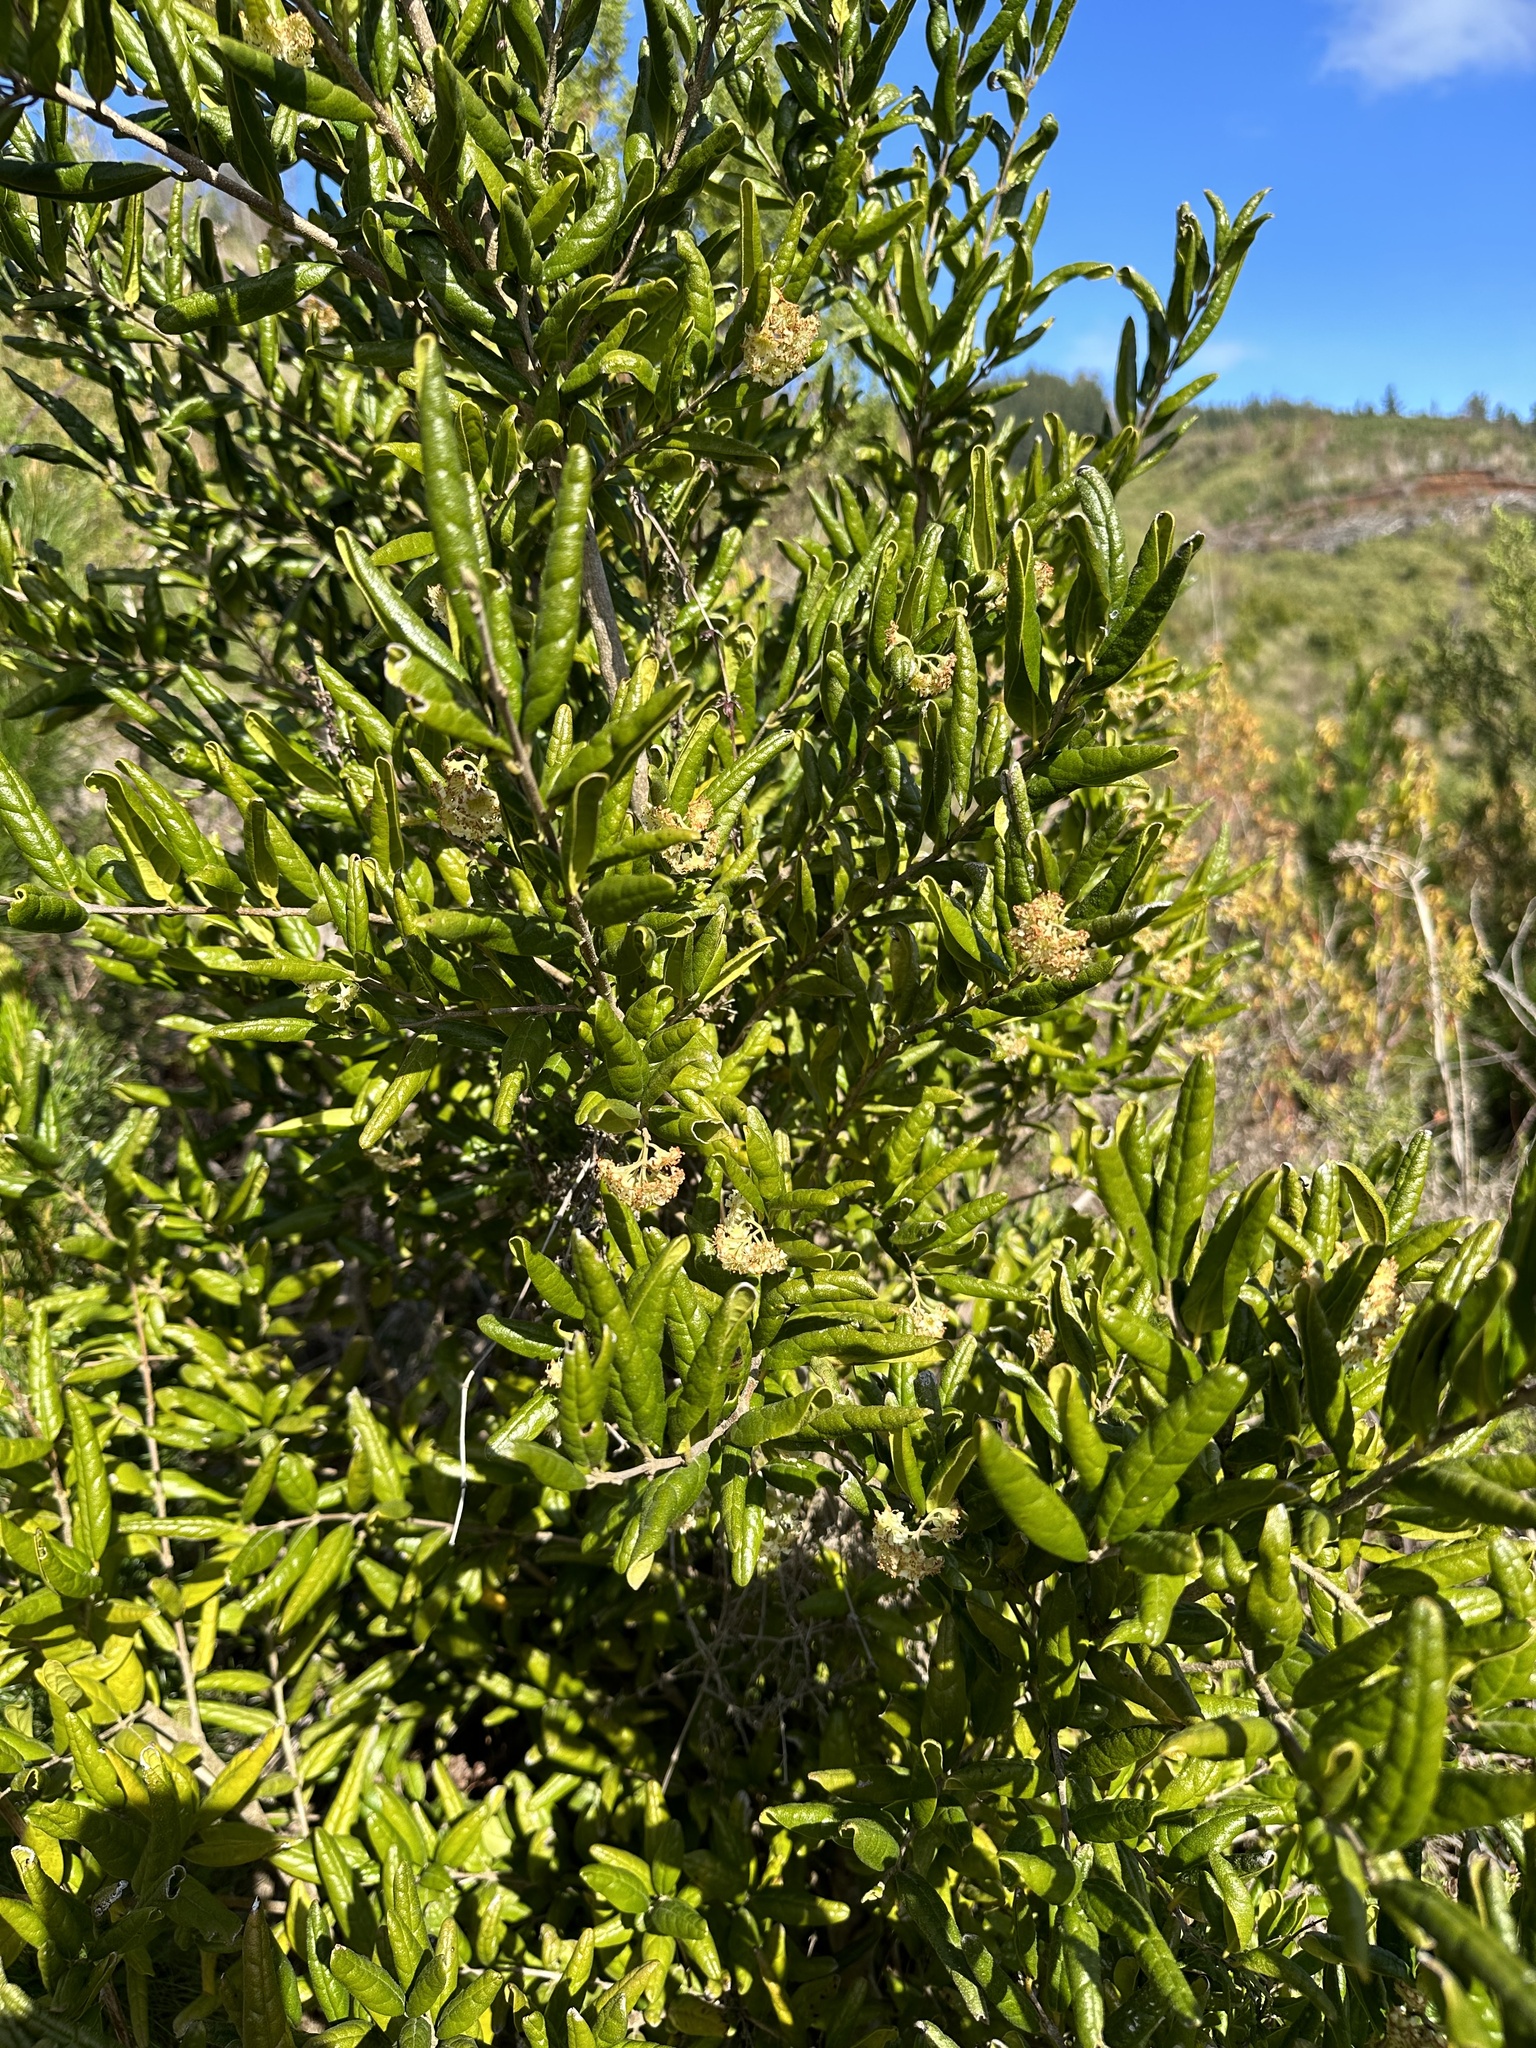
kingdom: Plantae
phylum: Tracheophyta
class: Magnoliopsida
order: Laurales
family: Monimiaceae
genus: Peumus
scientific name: Peumus boldus
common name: Boldo
